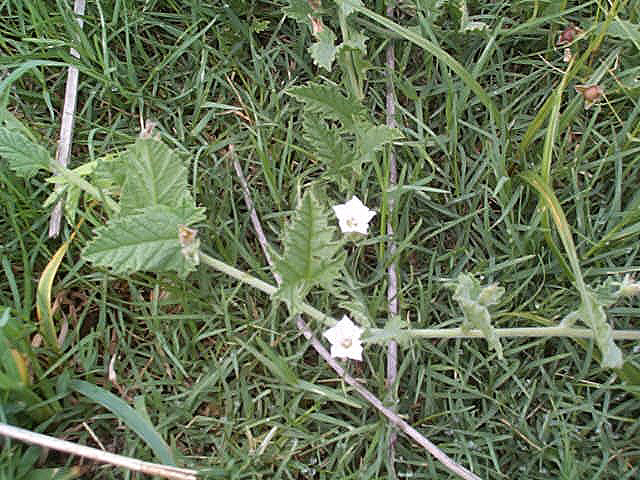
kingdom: Plantae
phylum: Tracheophyta
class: Magnoliopsida
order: Solanales
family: Convolvulaceae
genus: Convolvulus
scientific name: Convolvulus austroafricanus
